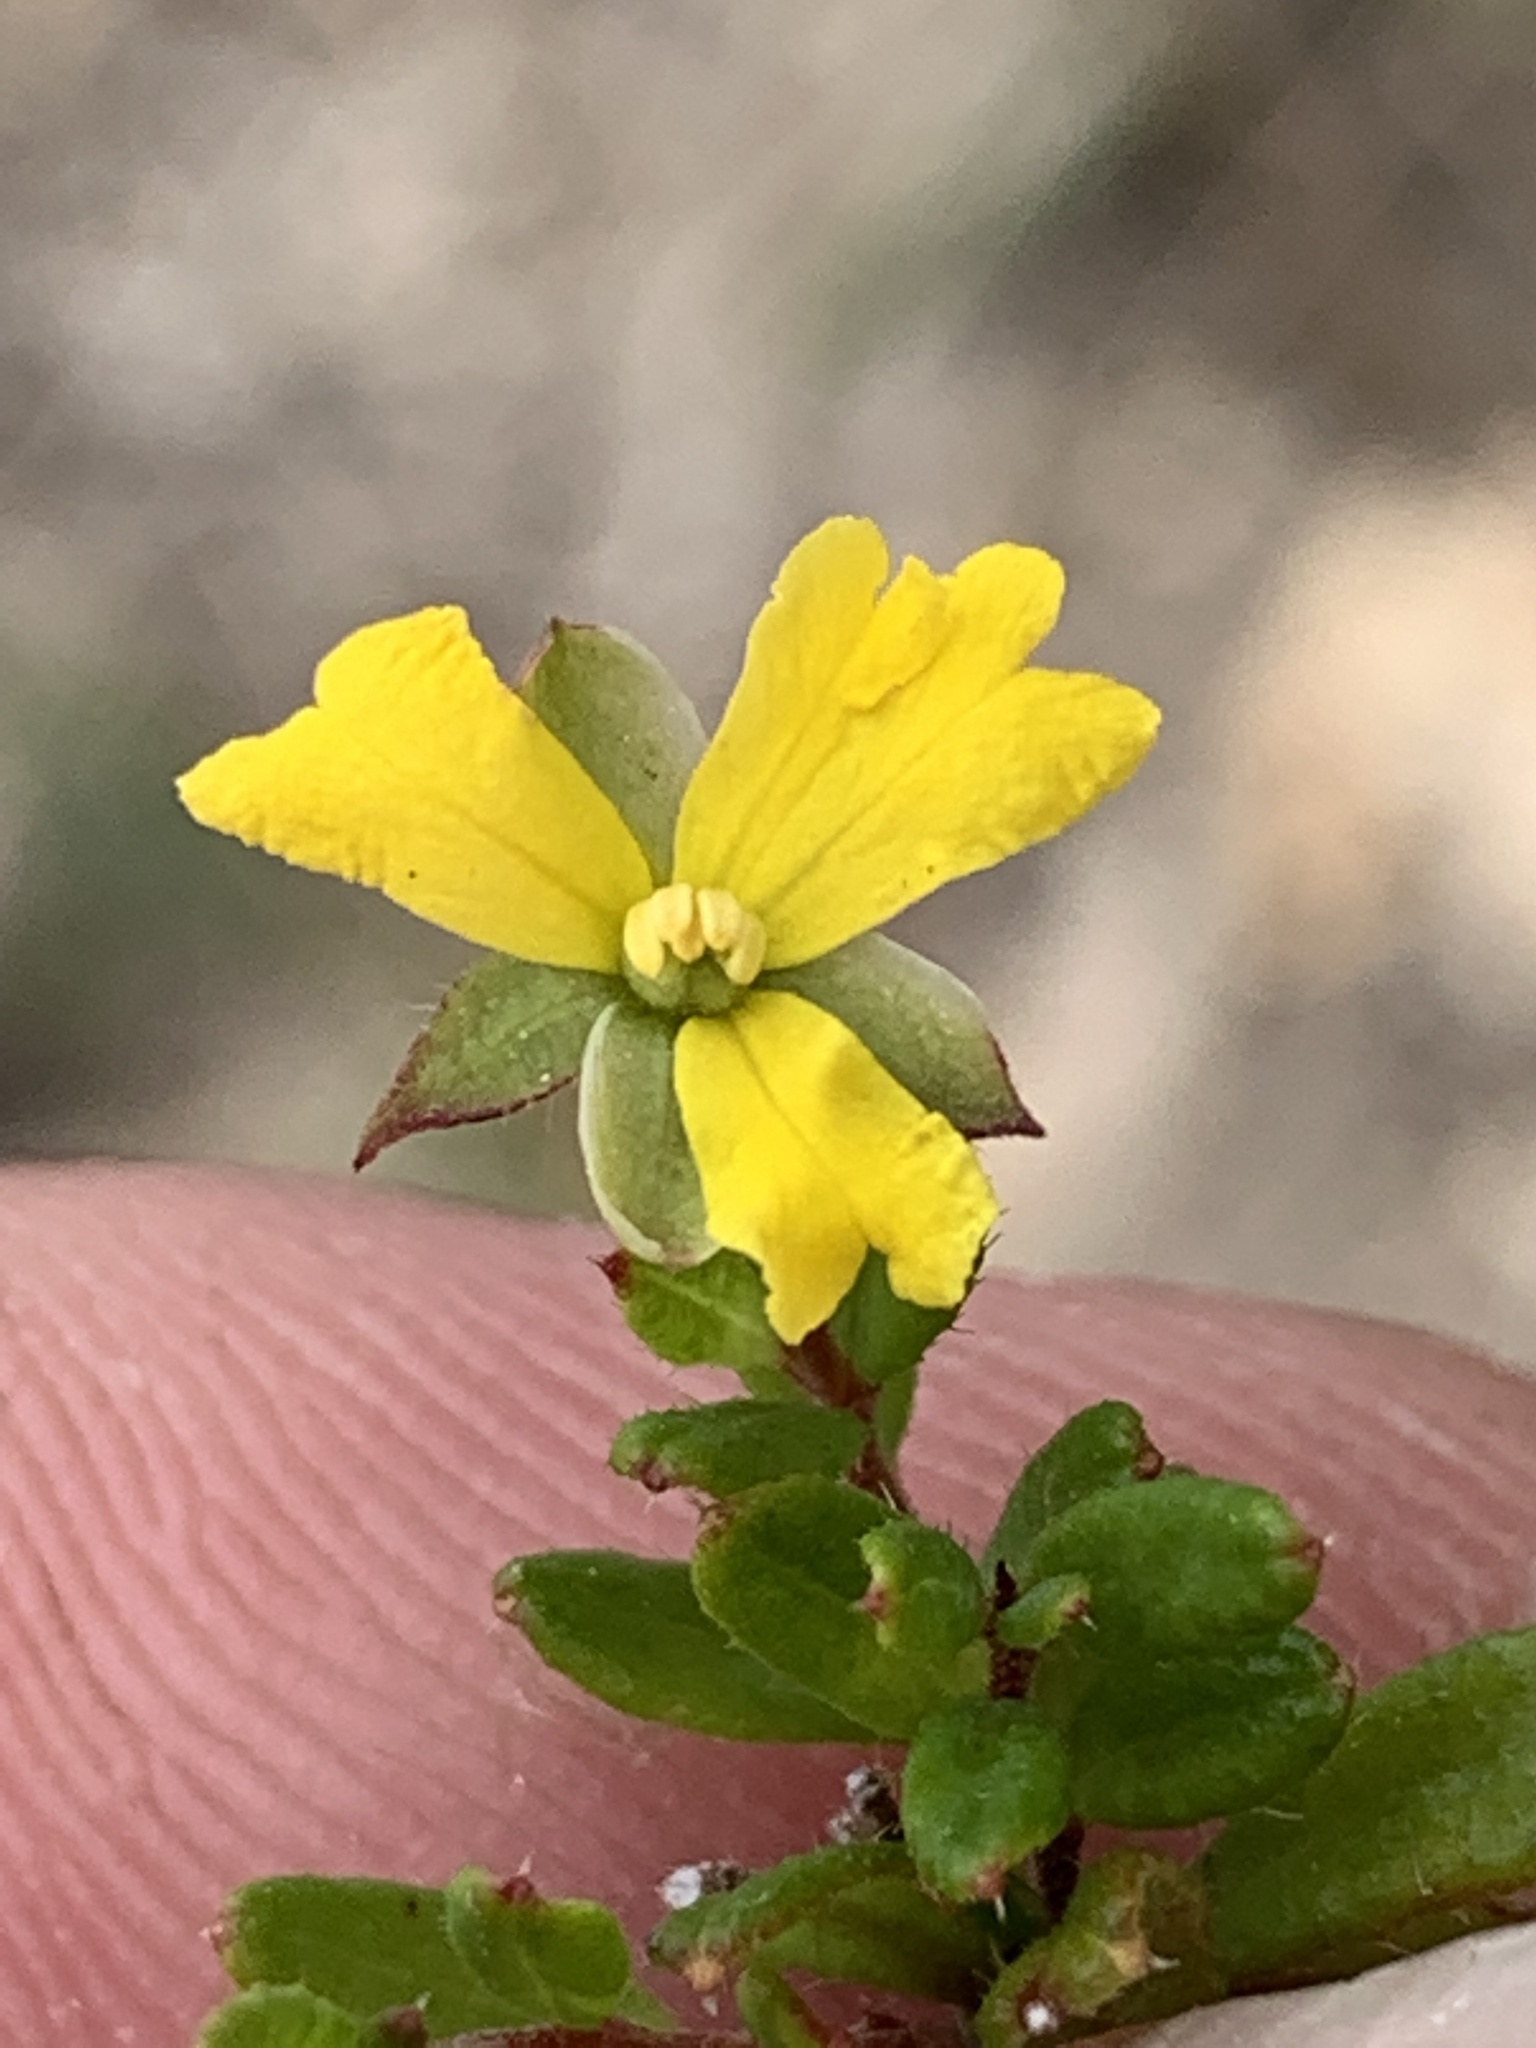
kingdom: Plantae
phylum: Tracheophyta
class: Magnoliopsida
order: Dilleniales
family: Dilleniaceae
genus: Hibbertia
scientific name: Hibbertia empetrifolia
